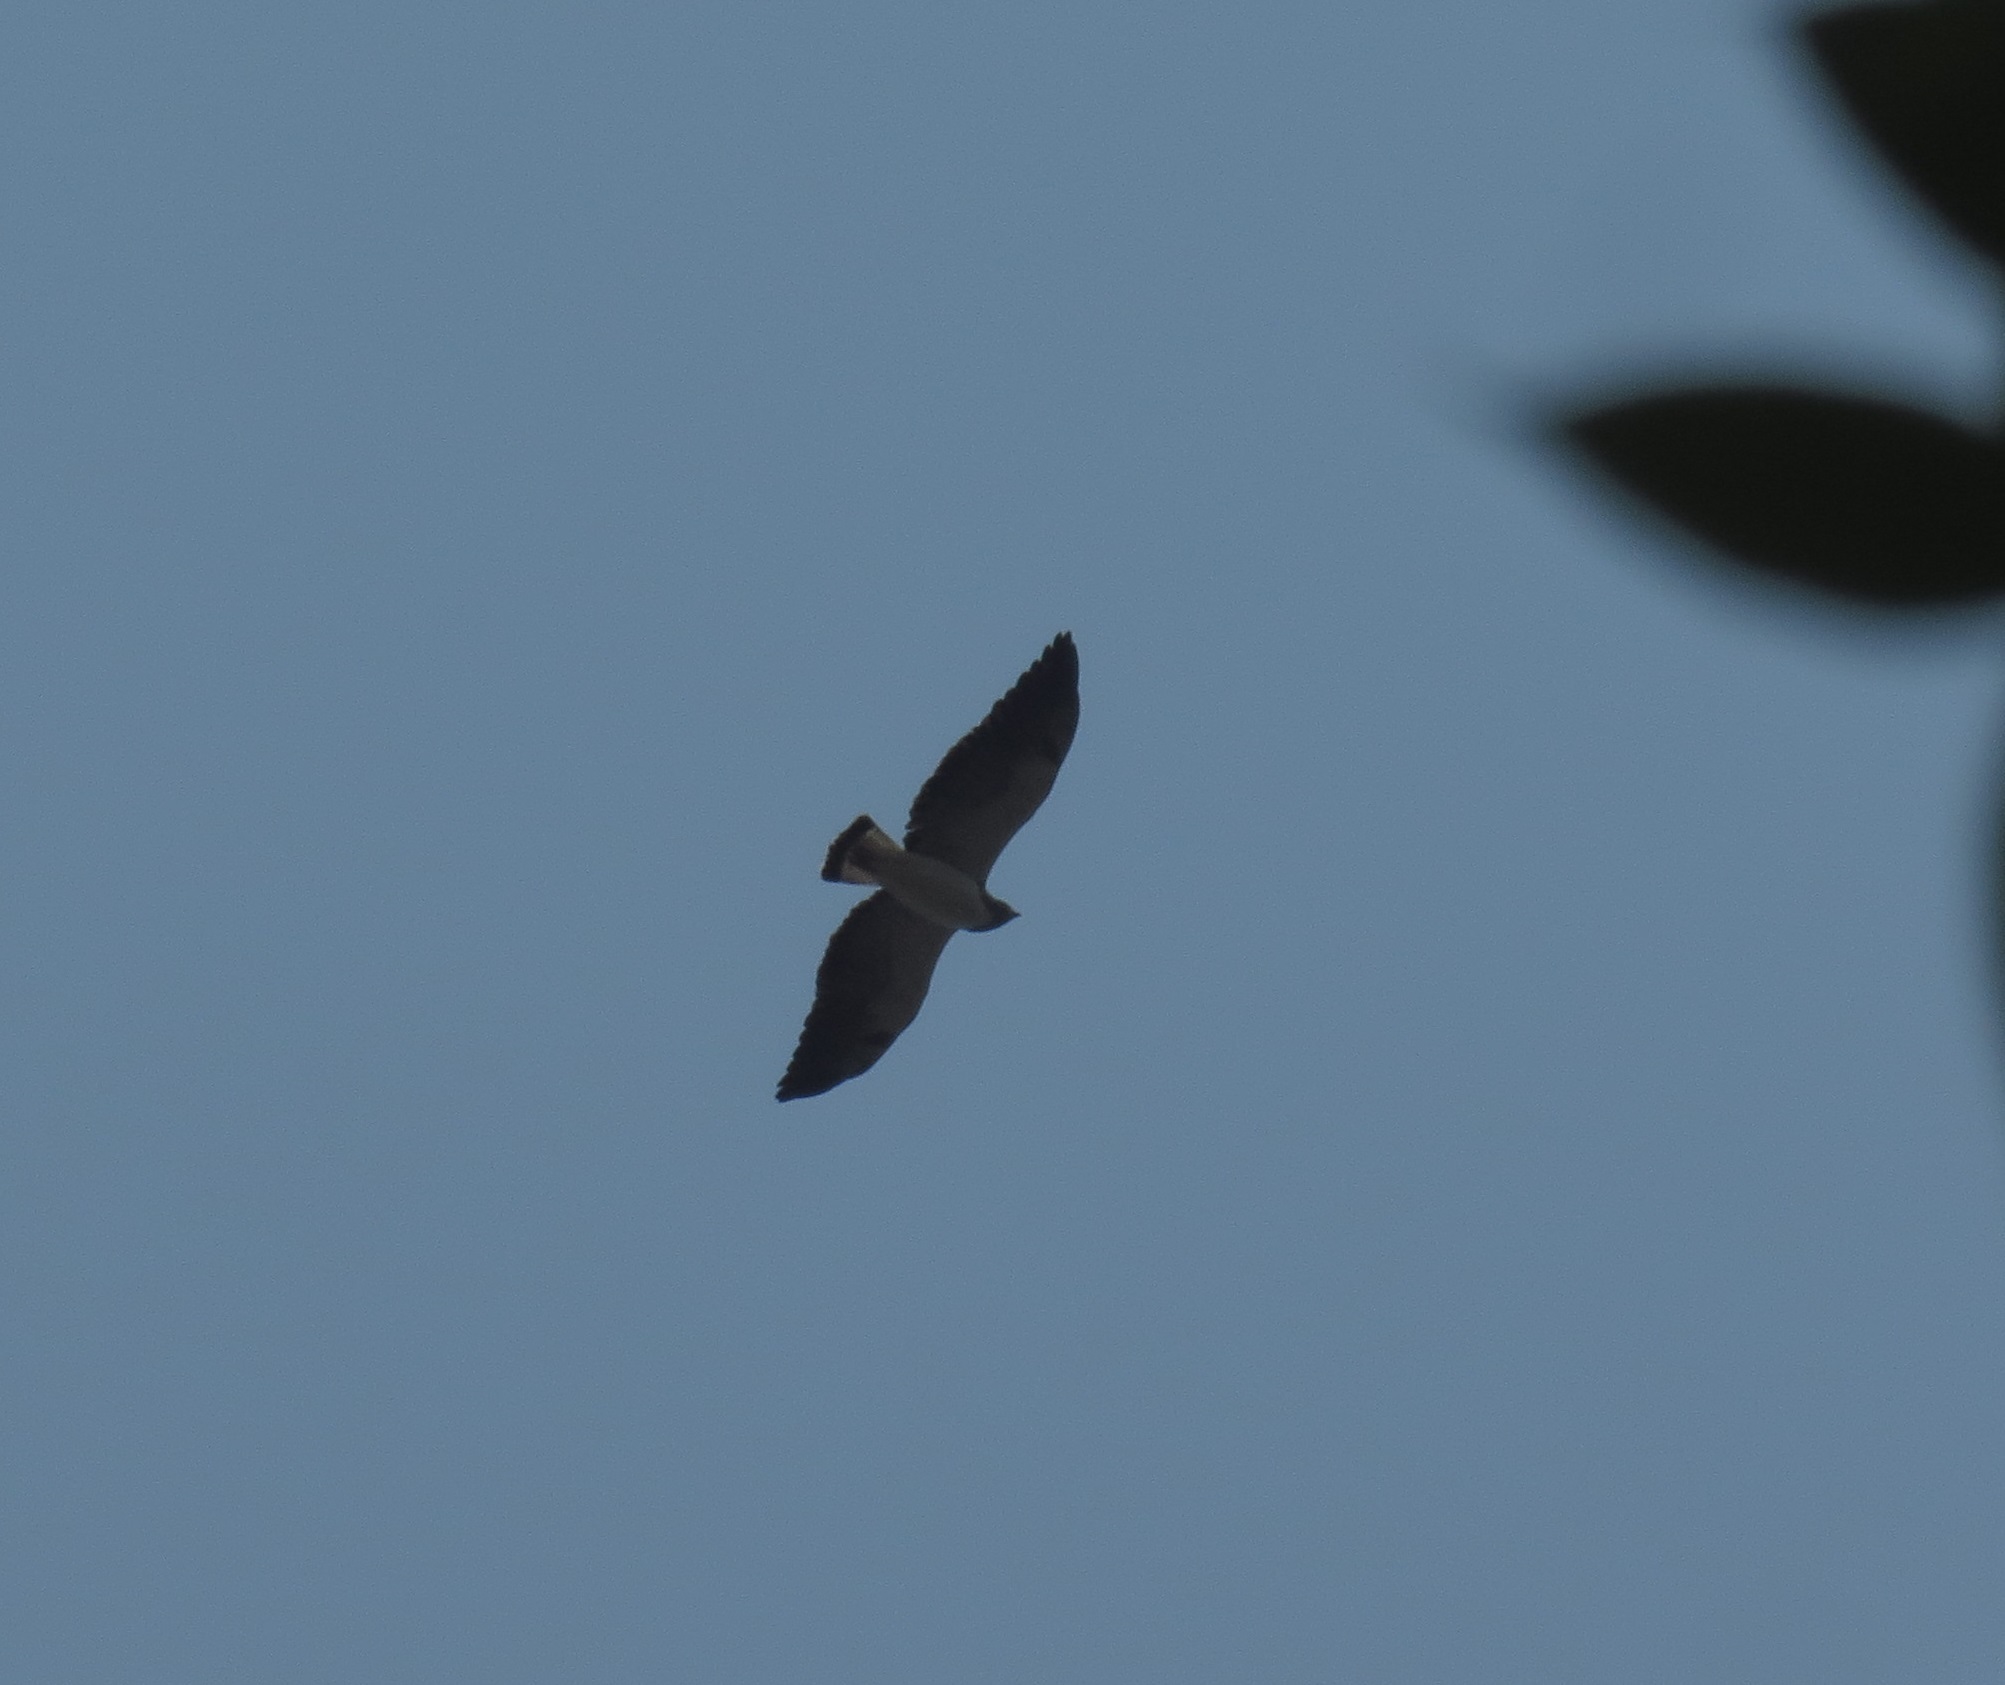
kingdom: Animalia
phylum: Chordata
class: Aves
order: Accipitriformes
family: Accipitridae
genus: Buteo
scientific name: Buteo albicaudatus
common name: White-tailed hawk
